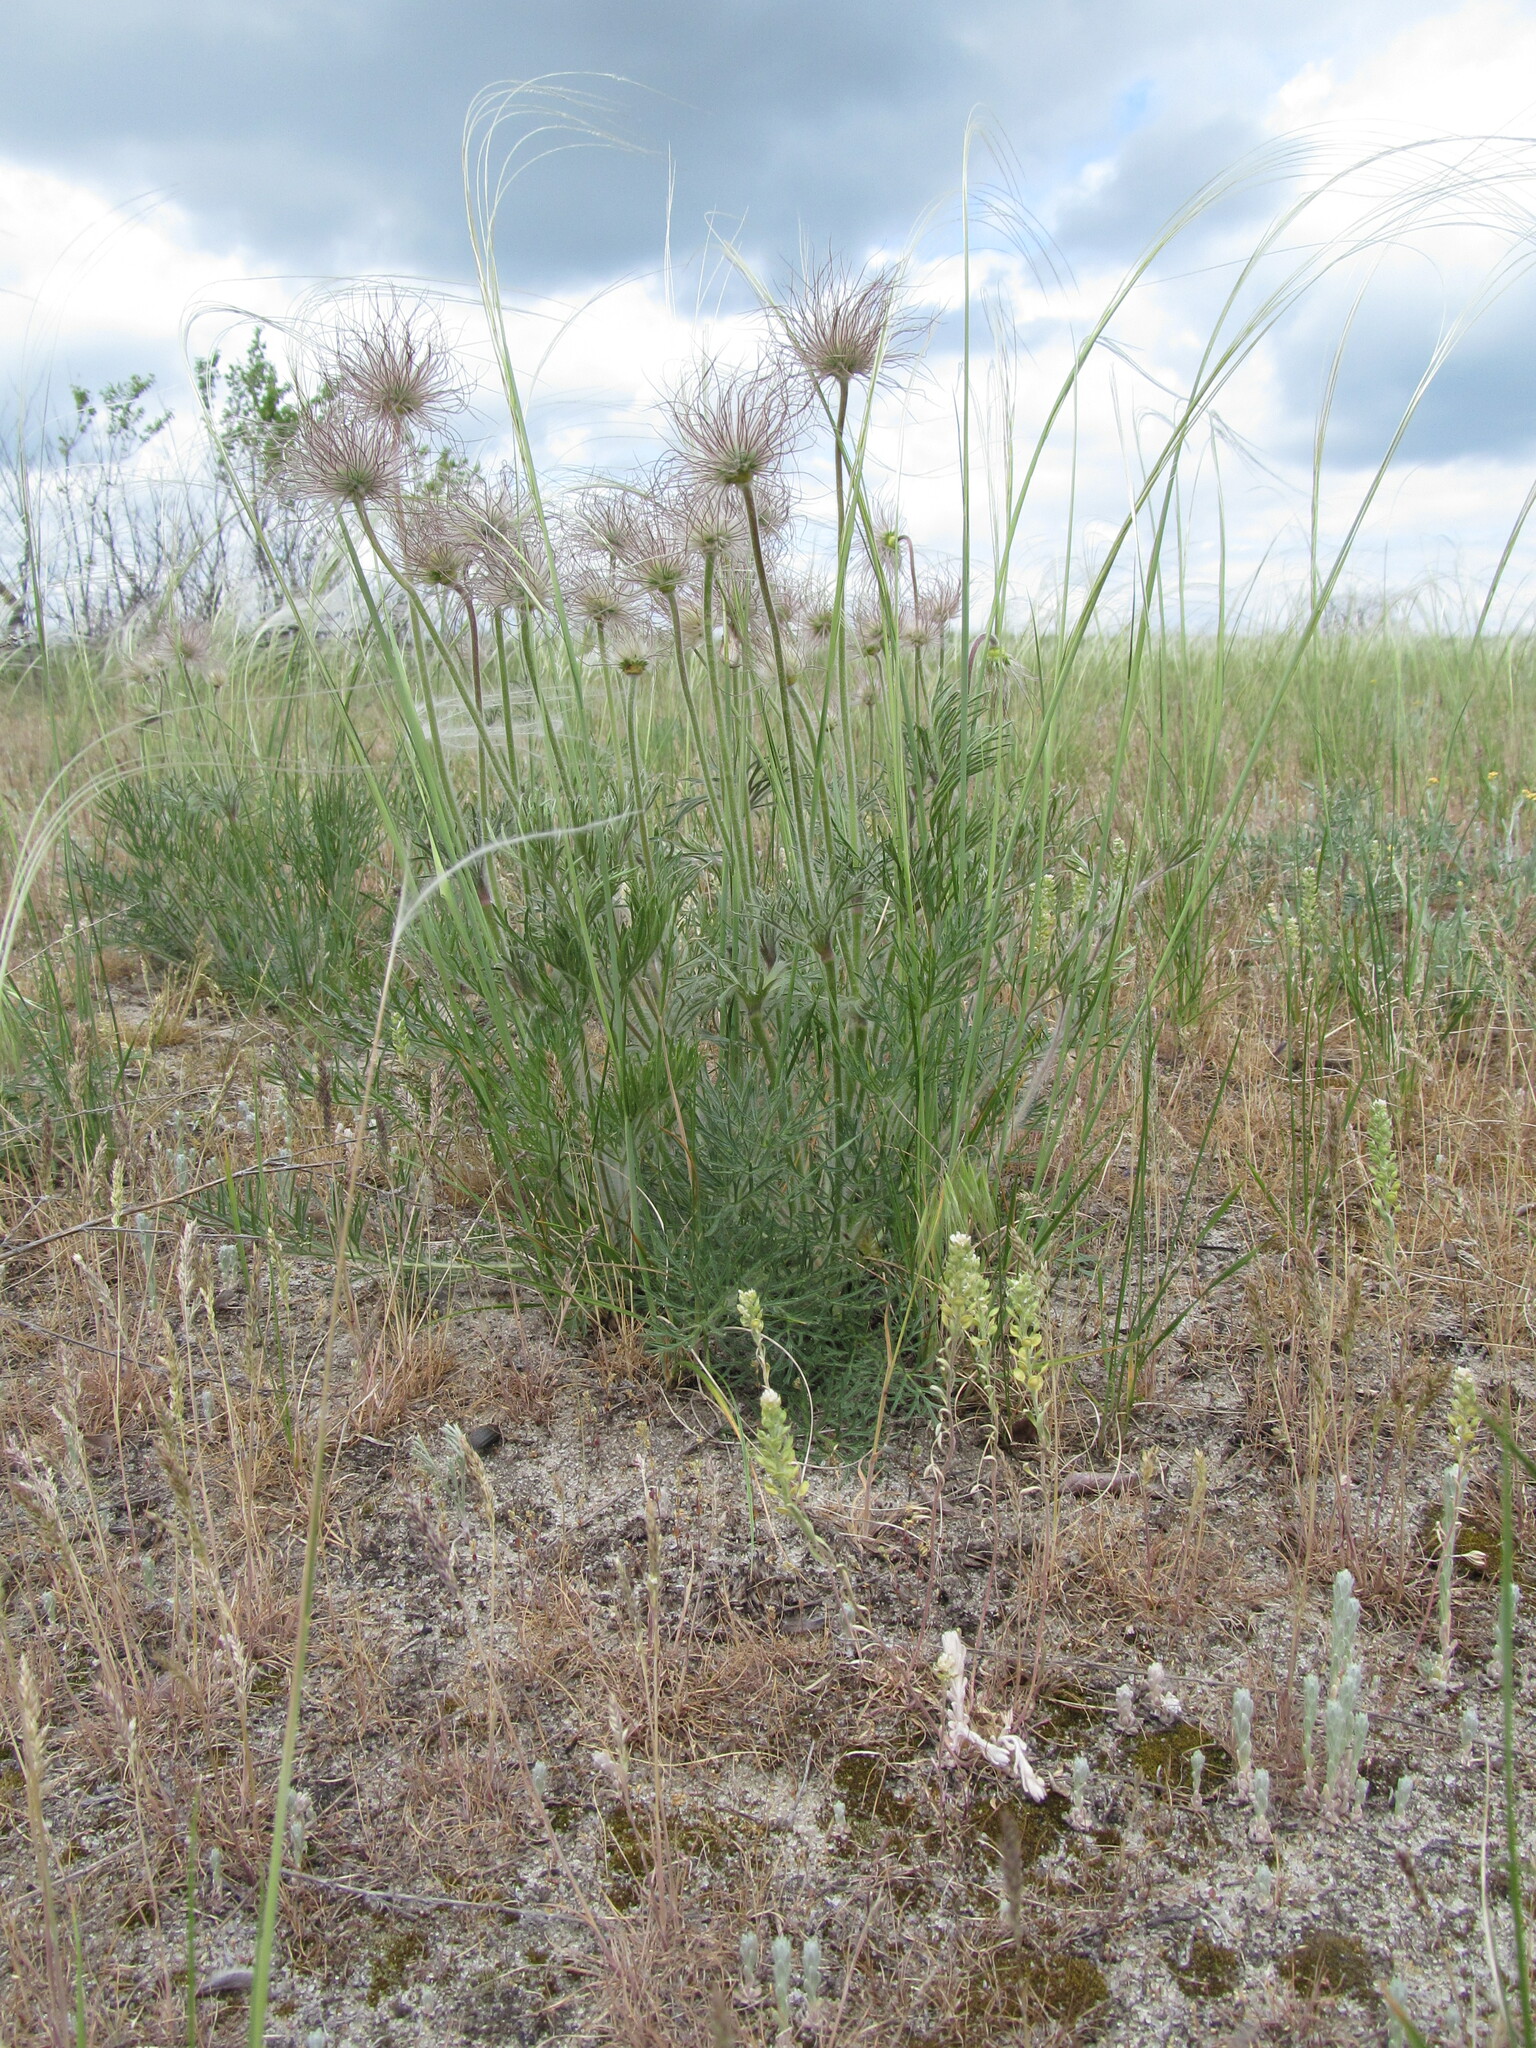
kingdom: Plantae
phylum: Tracheophyta
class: Magnoliopsida
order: Ranunculales
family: Ranunculaceae
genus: Pulsatilla
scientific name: Pulsatilla pratensis
